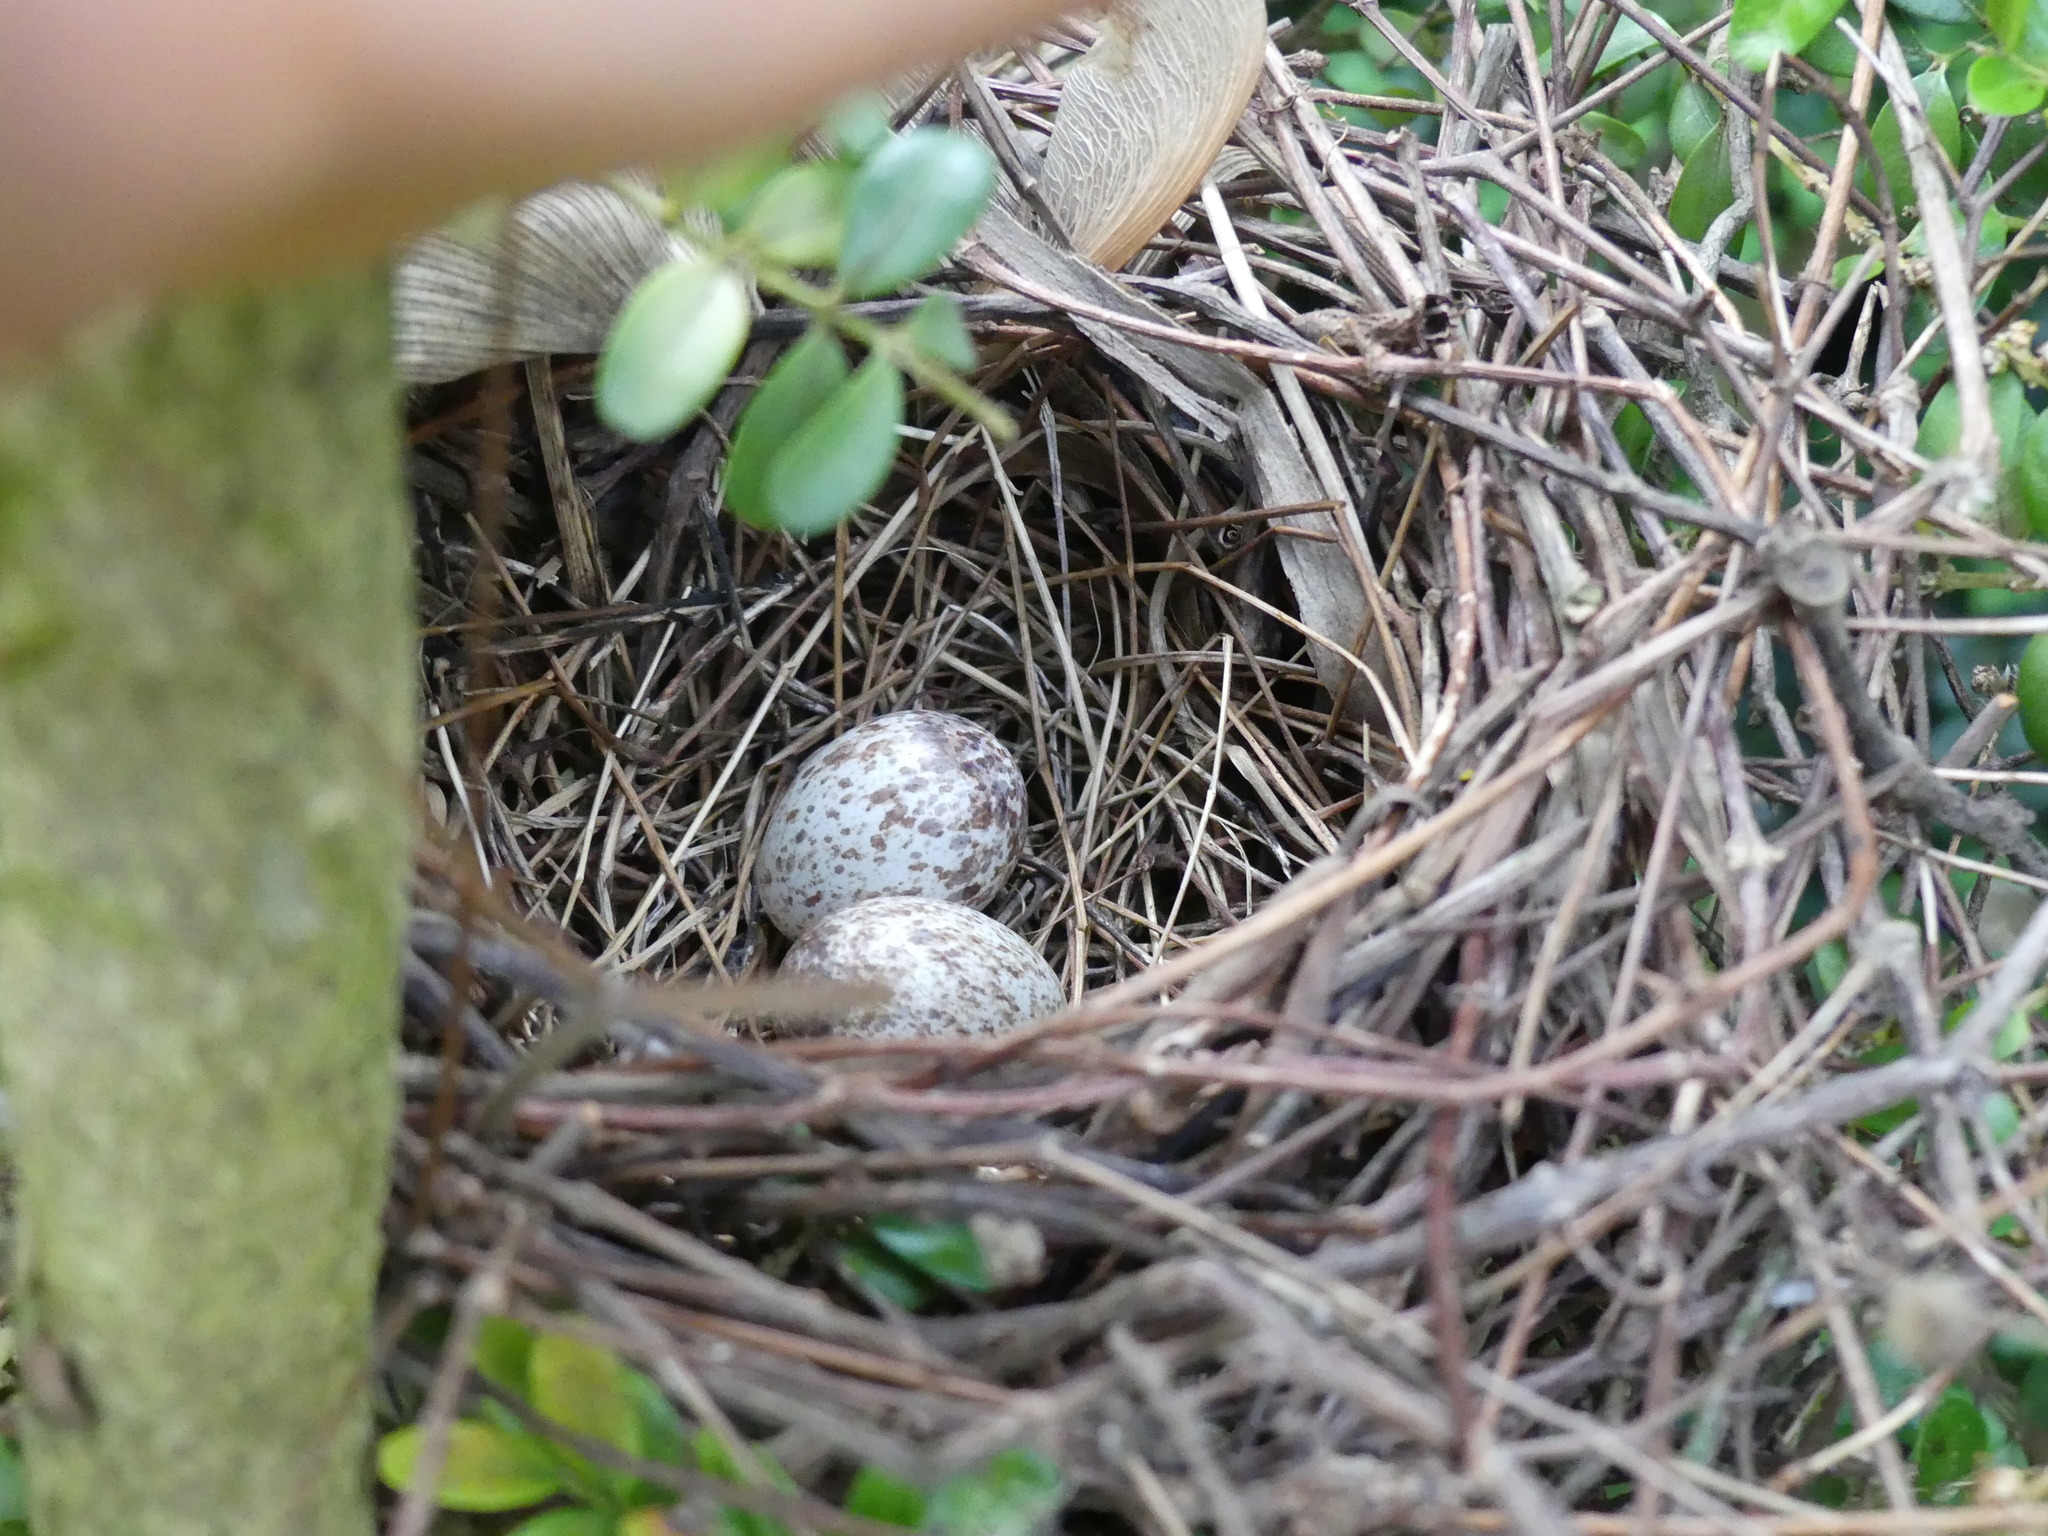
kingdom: Animalia
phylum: Chordata
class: Aves
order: Passeriformes
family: Cardinalidae
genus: Cardinalis
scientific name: Cardinalis cardinalis
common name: Northern cardinal
